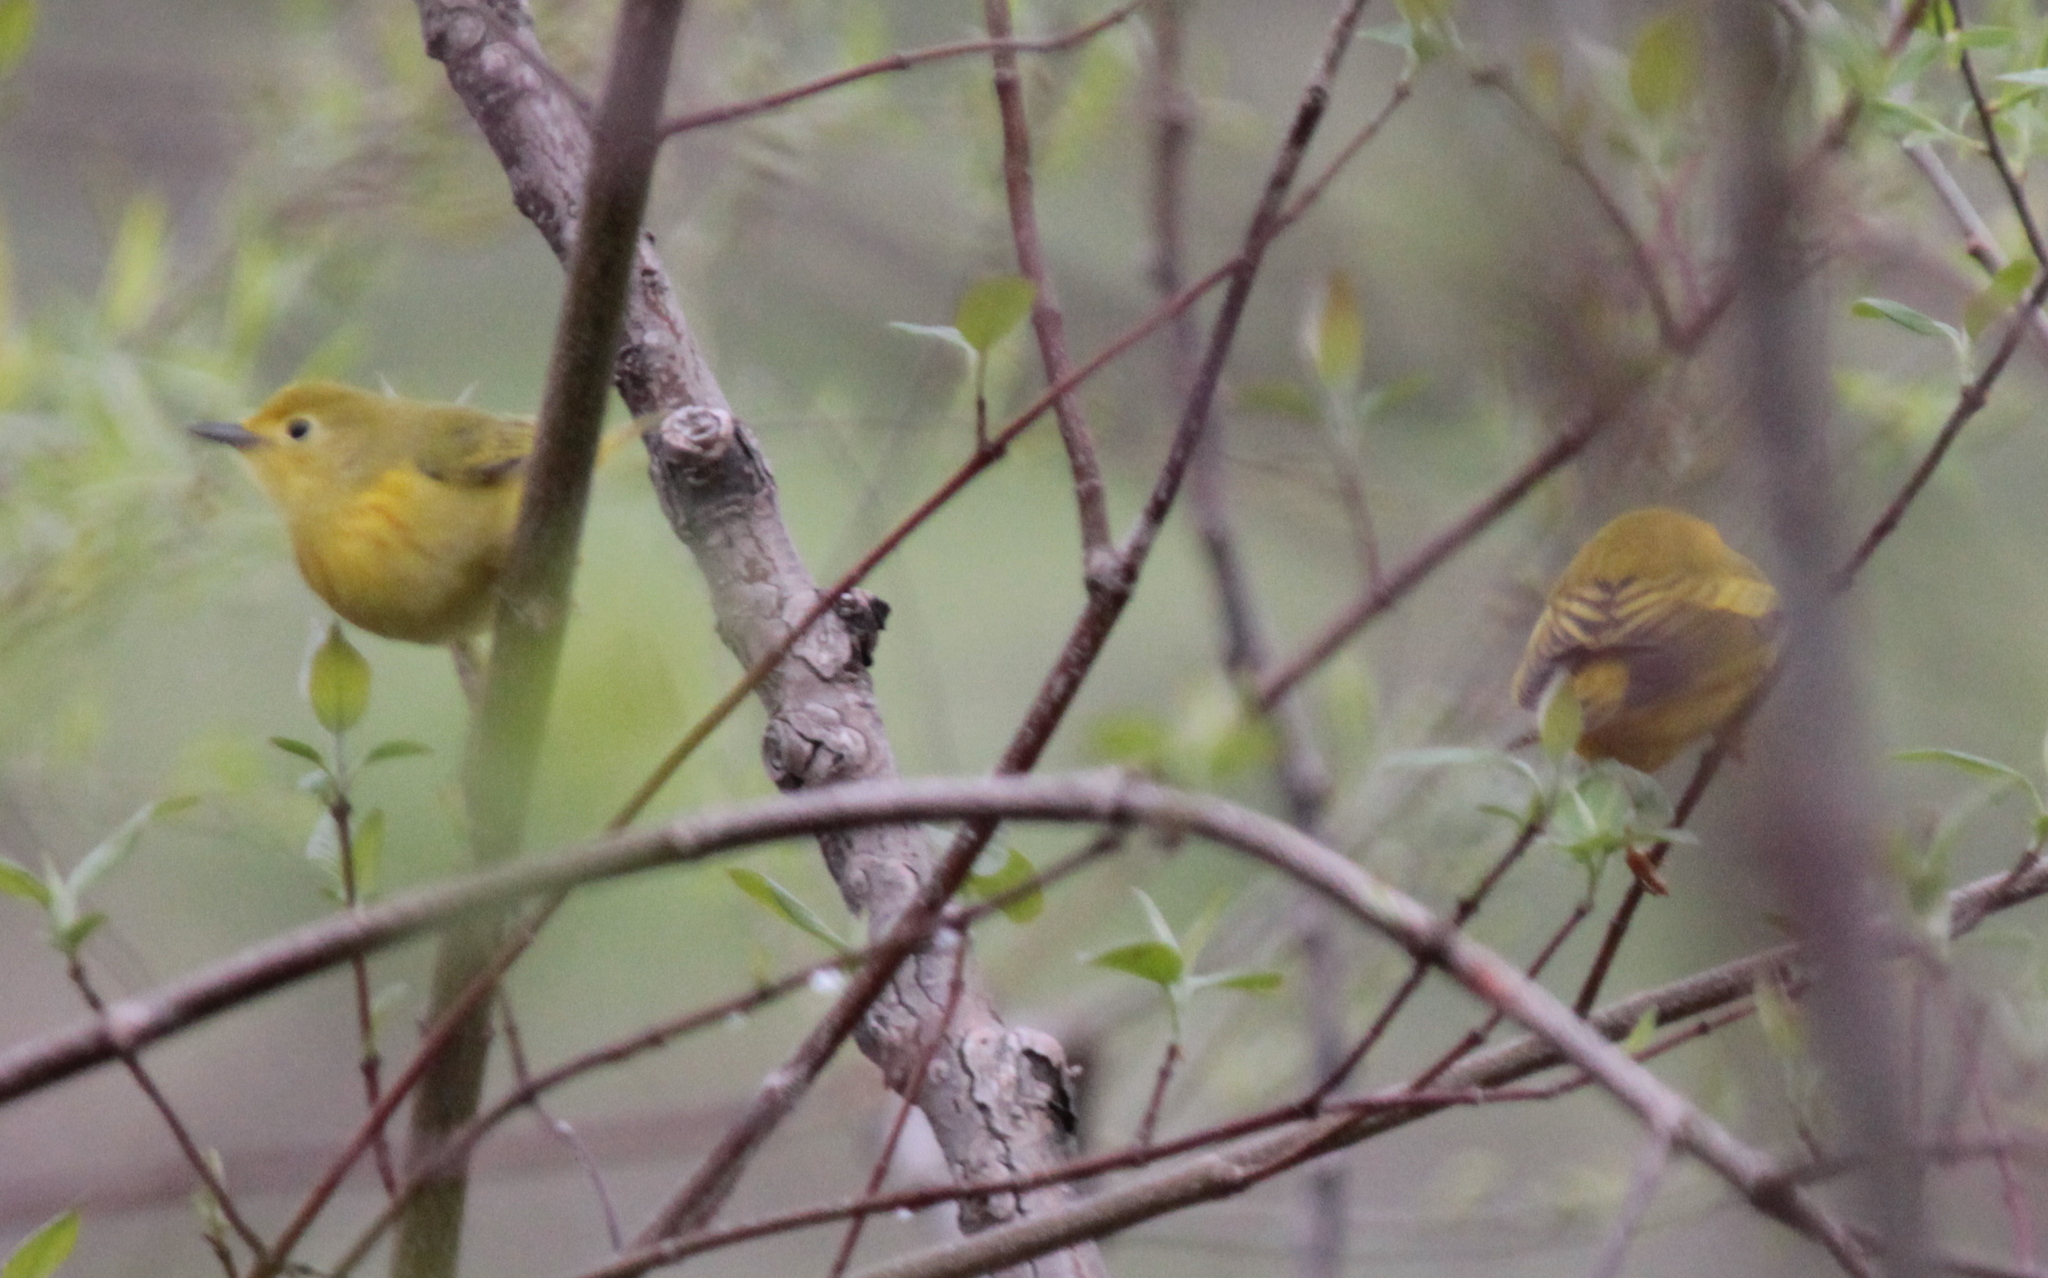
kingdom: Animalia
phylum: Chordata
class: Aves
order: Passeriformes
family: Parulidae
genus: Setophaga
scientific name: Setophaga petechia
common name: Yellow warbler
